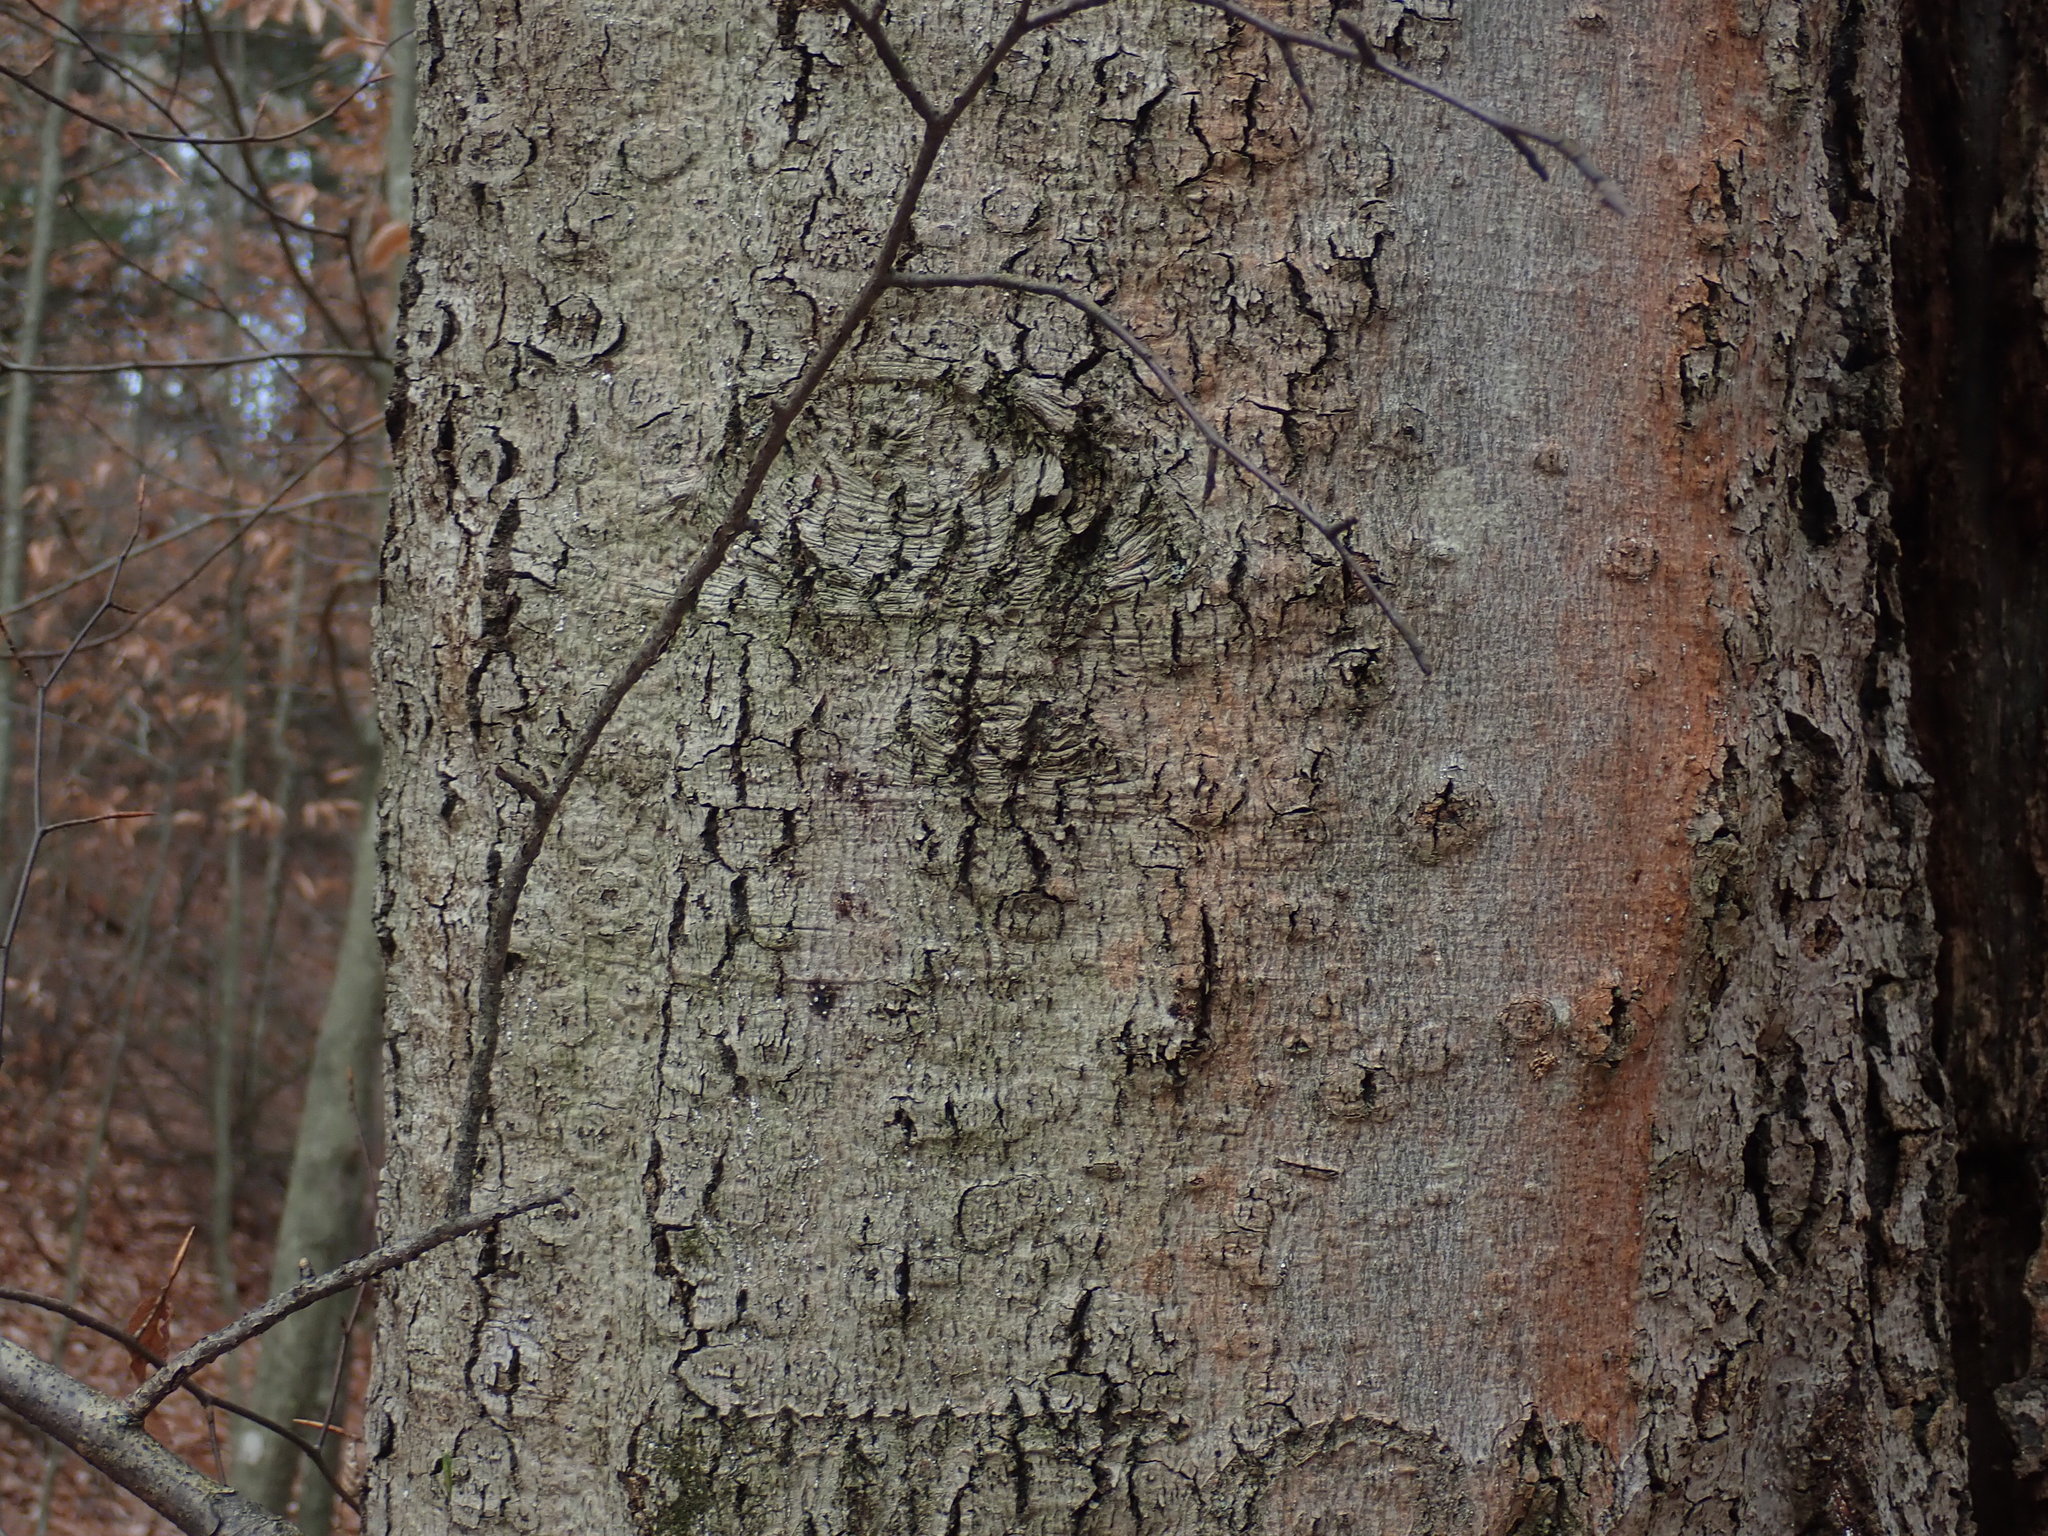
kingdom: Fungi
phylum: Ascomycota
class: Sordariomycetes
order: Hypocreales
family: Nectriaceae
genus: Neonectria
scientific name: Neonectria faginata
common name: Beech bark canker
